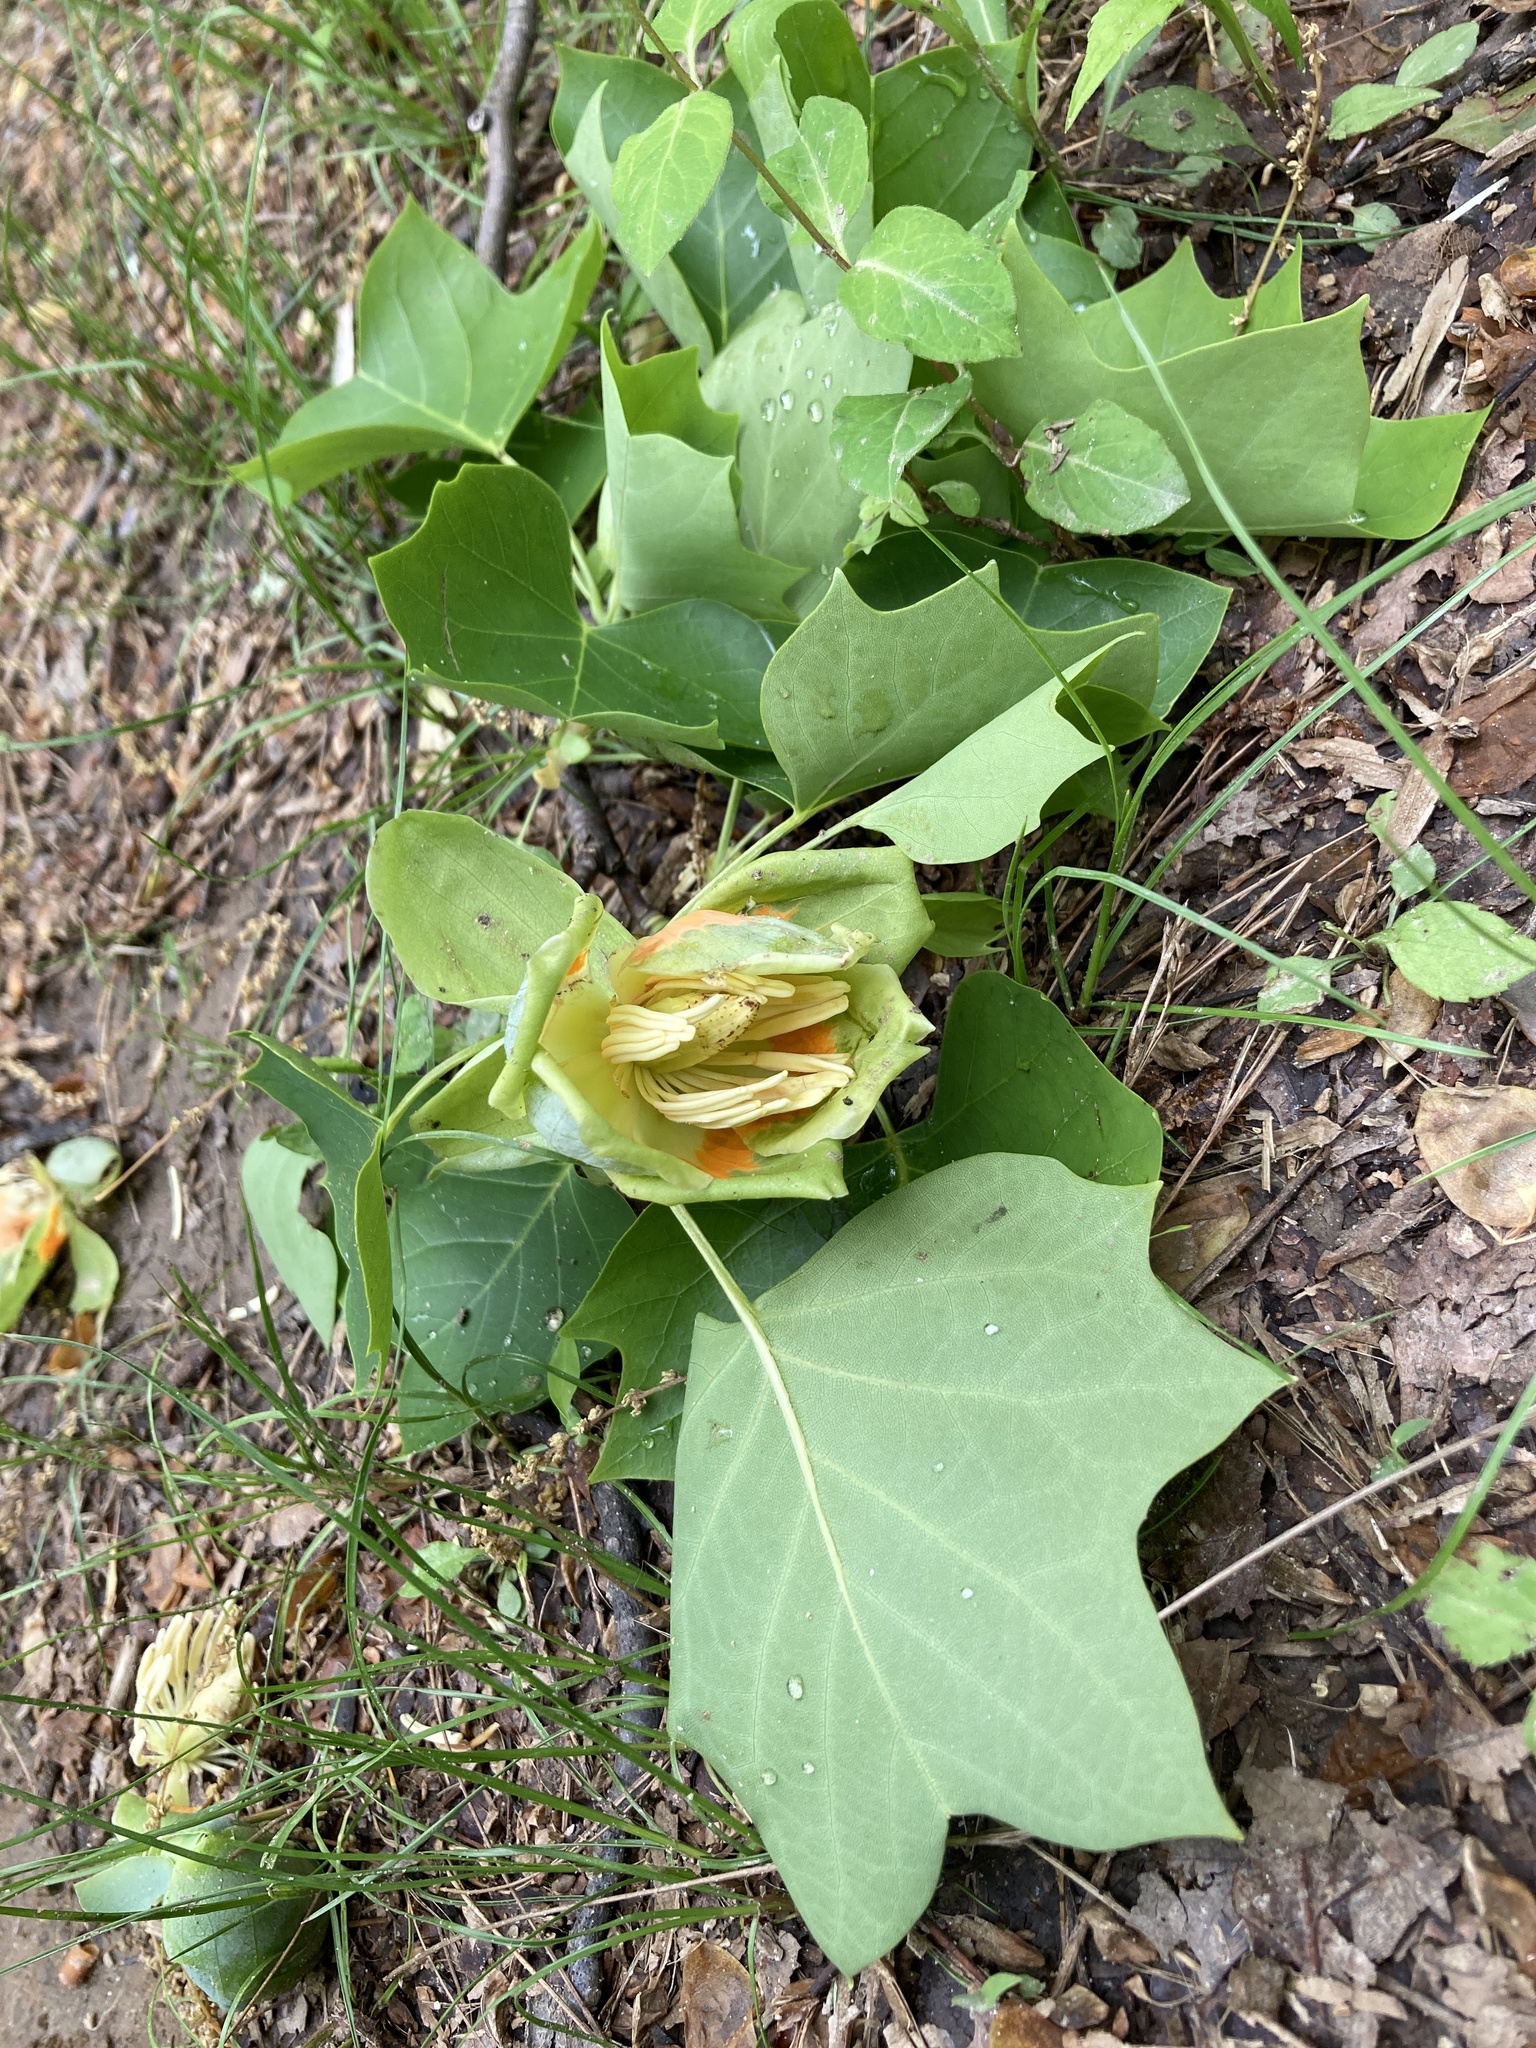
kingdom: Plantae
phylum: Tracheophyta
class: Magnoliopsida
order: Magnoliales
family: Magnoliaceae
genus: Liriodendron
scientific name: Liriodendron tulipifera
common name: Tulip tree
